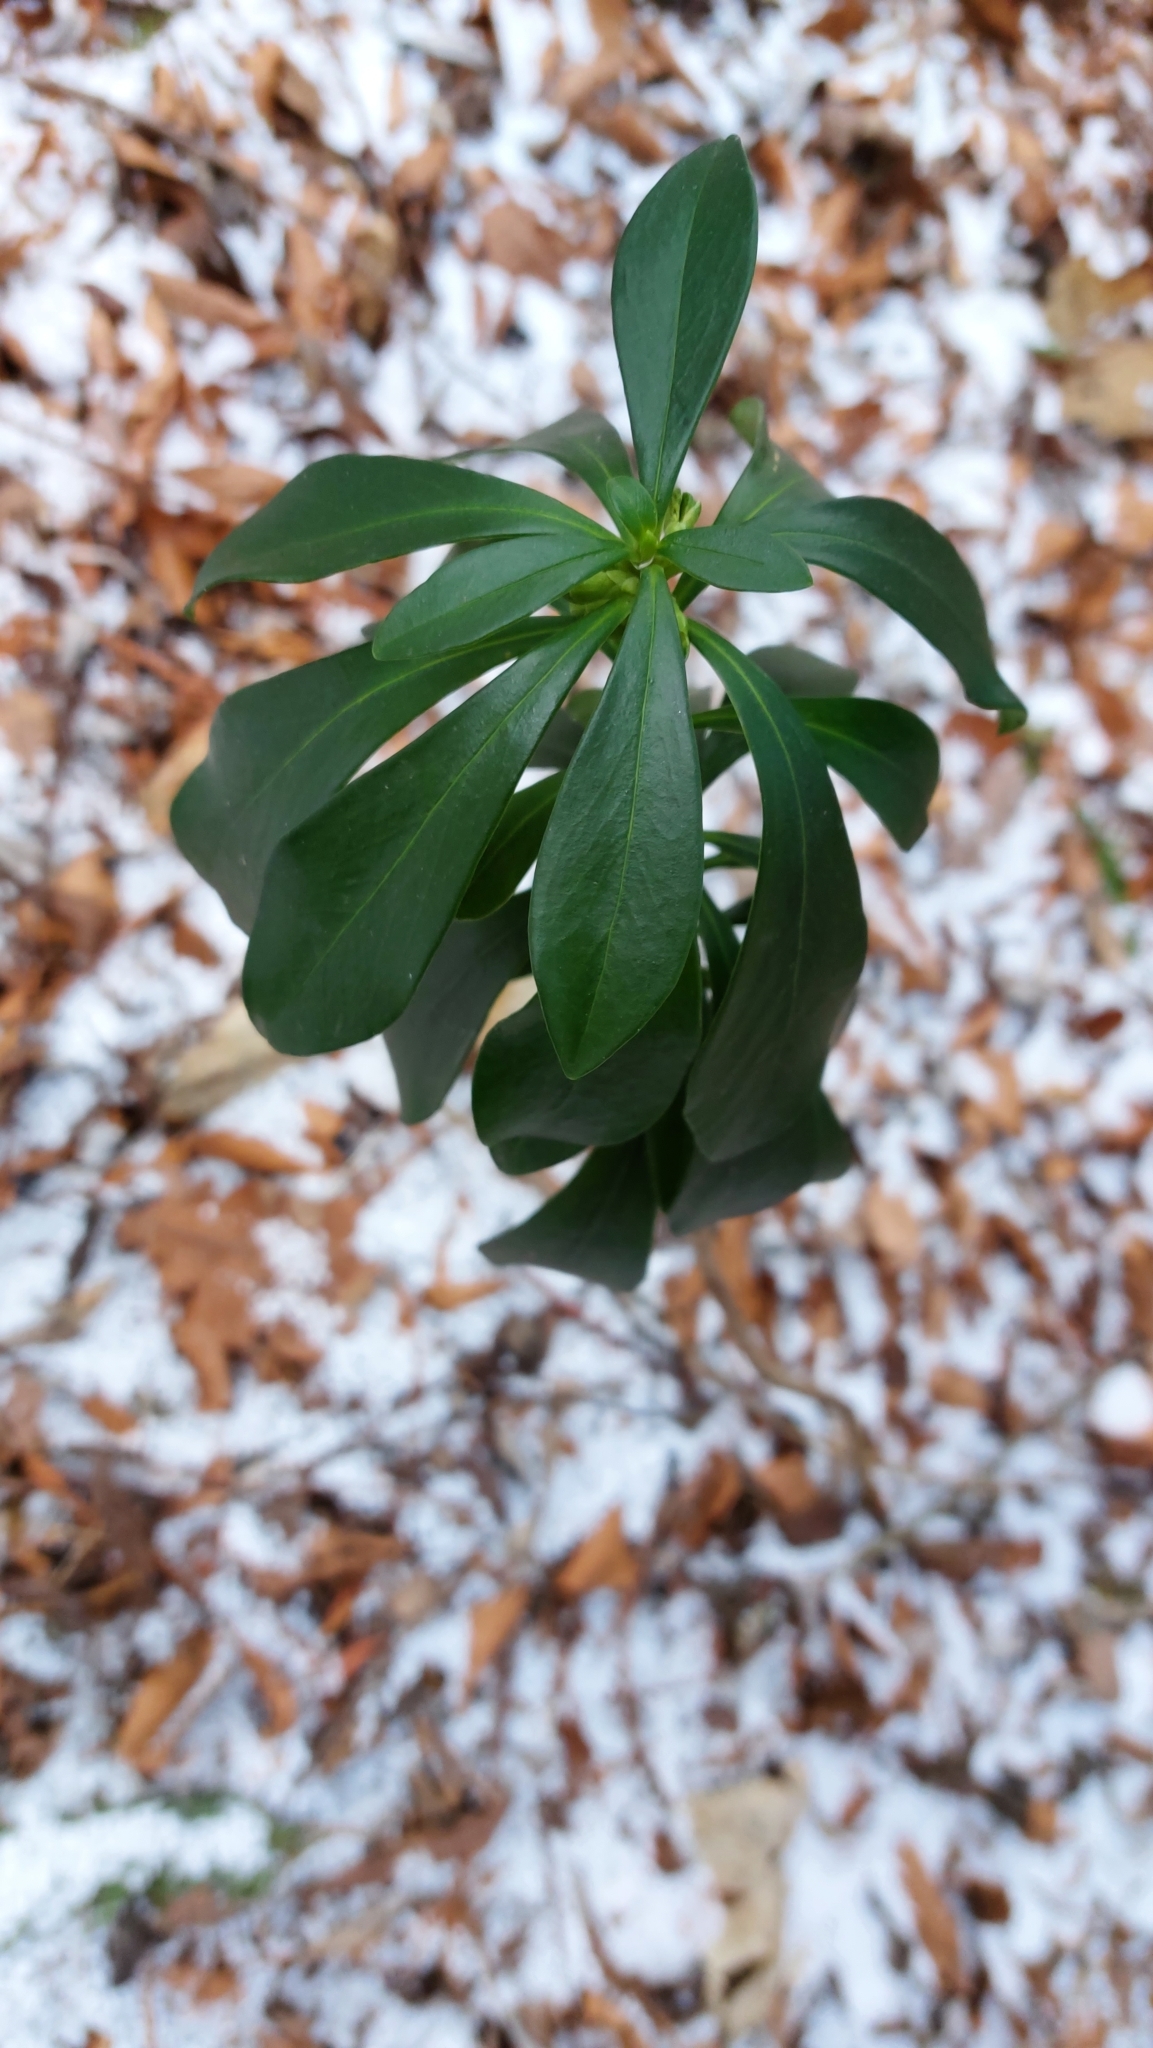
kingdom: Plantae
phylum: Tracheophyta
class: Magnoliopsida
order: Malvales
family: Thymelaeaceae
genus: Daphne
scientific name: Daphne laureola
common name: Spurge-laurel
